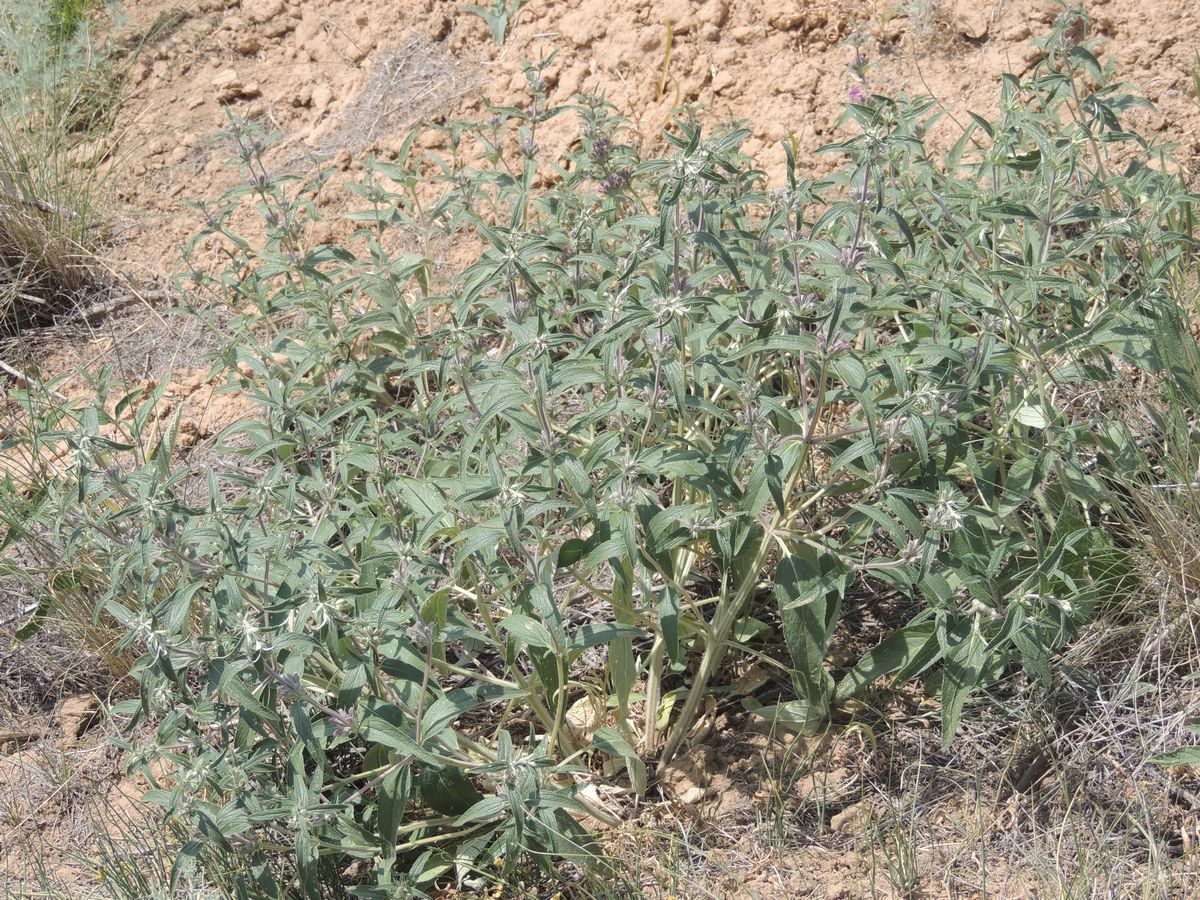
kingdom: Plantae
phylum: Tracheophyta
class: Magnoliopsida
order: Lamiales
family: Lamiaceae
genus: Phlomis
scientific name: Phlomis herba-venti
